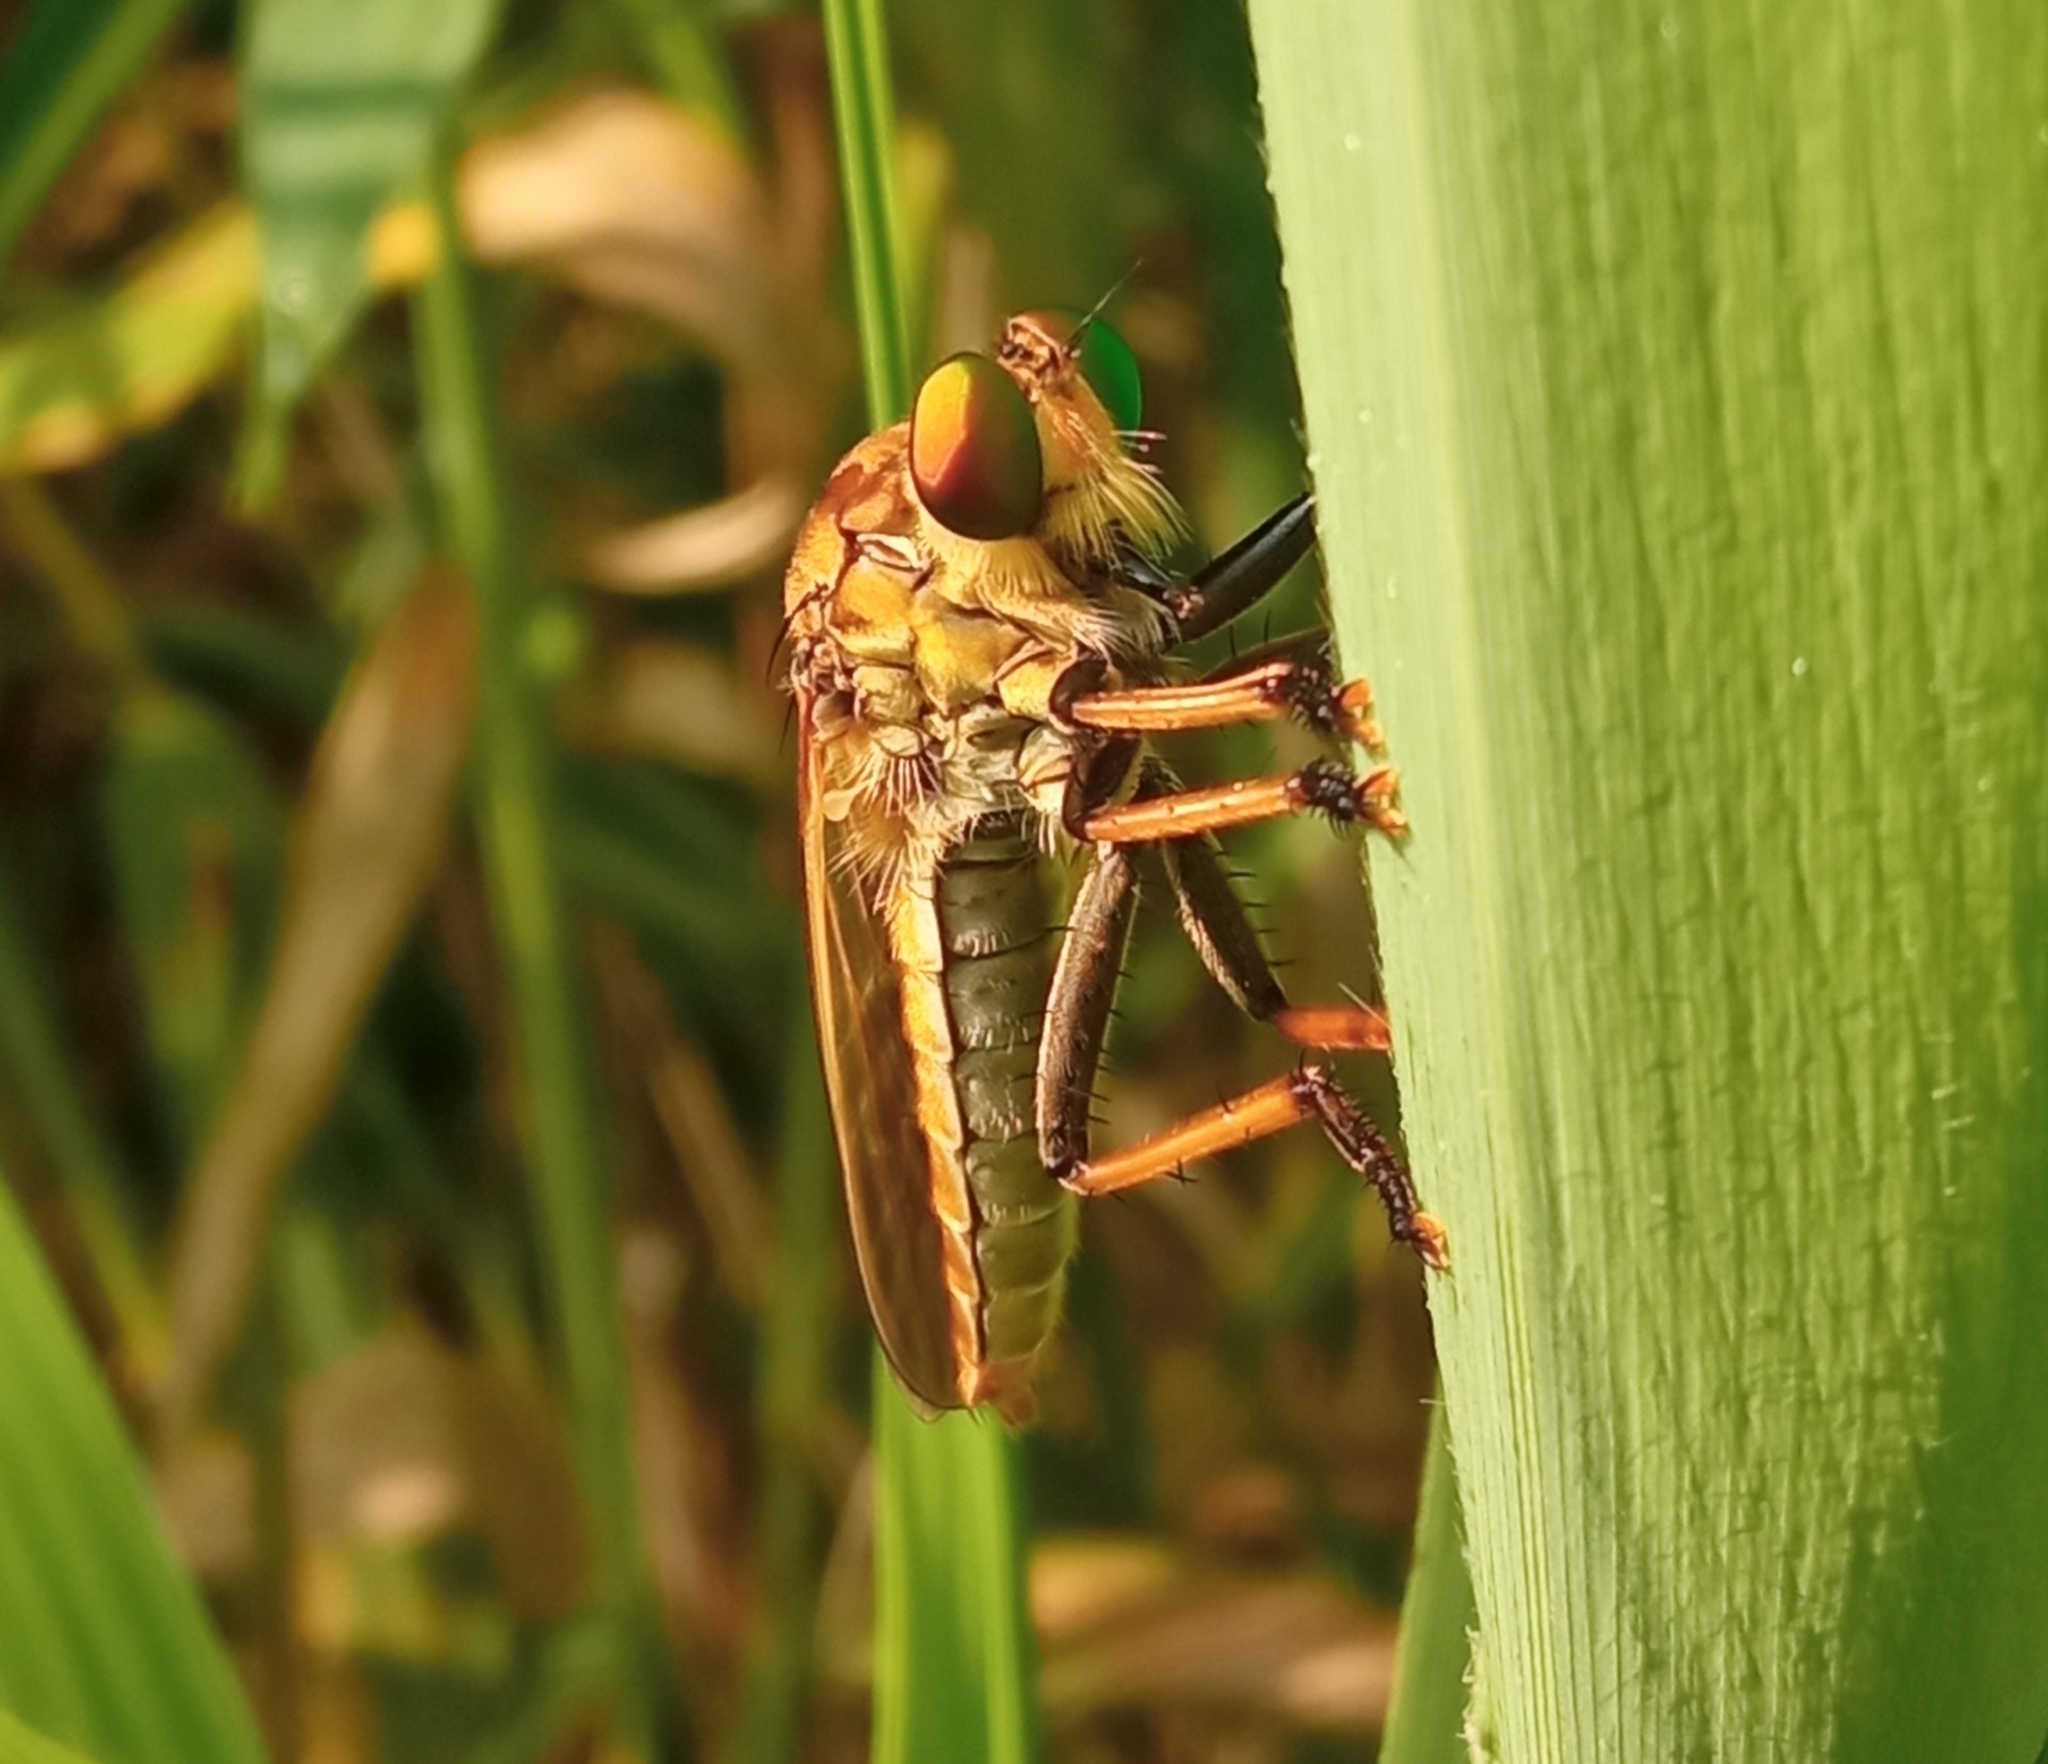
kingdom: Animalia
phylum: Arthropoda
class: Insecta
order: Diptera
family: Asilidae
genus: Cophinopoda
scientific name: Cophinopoda
